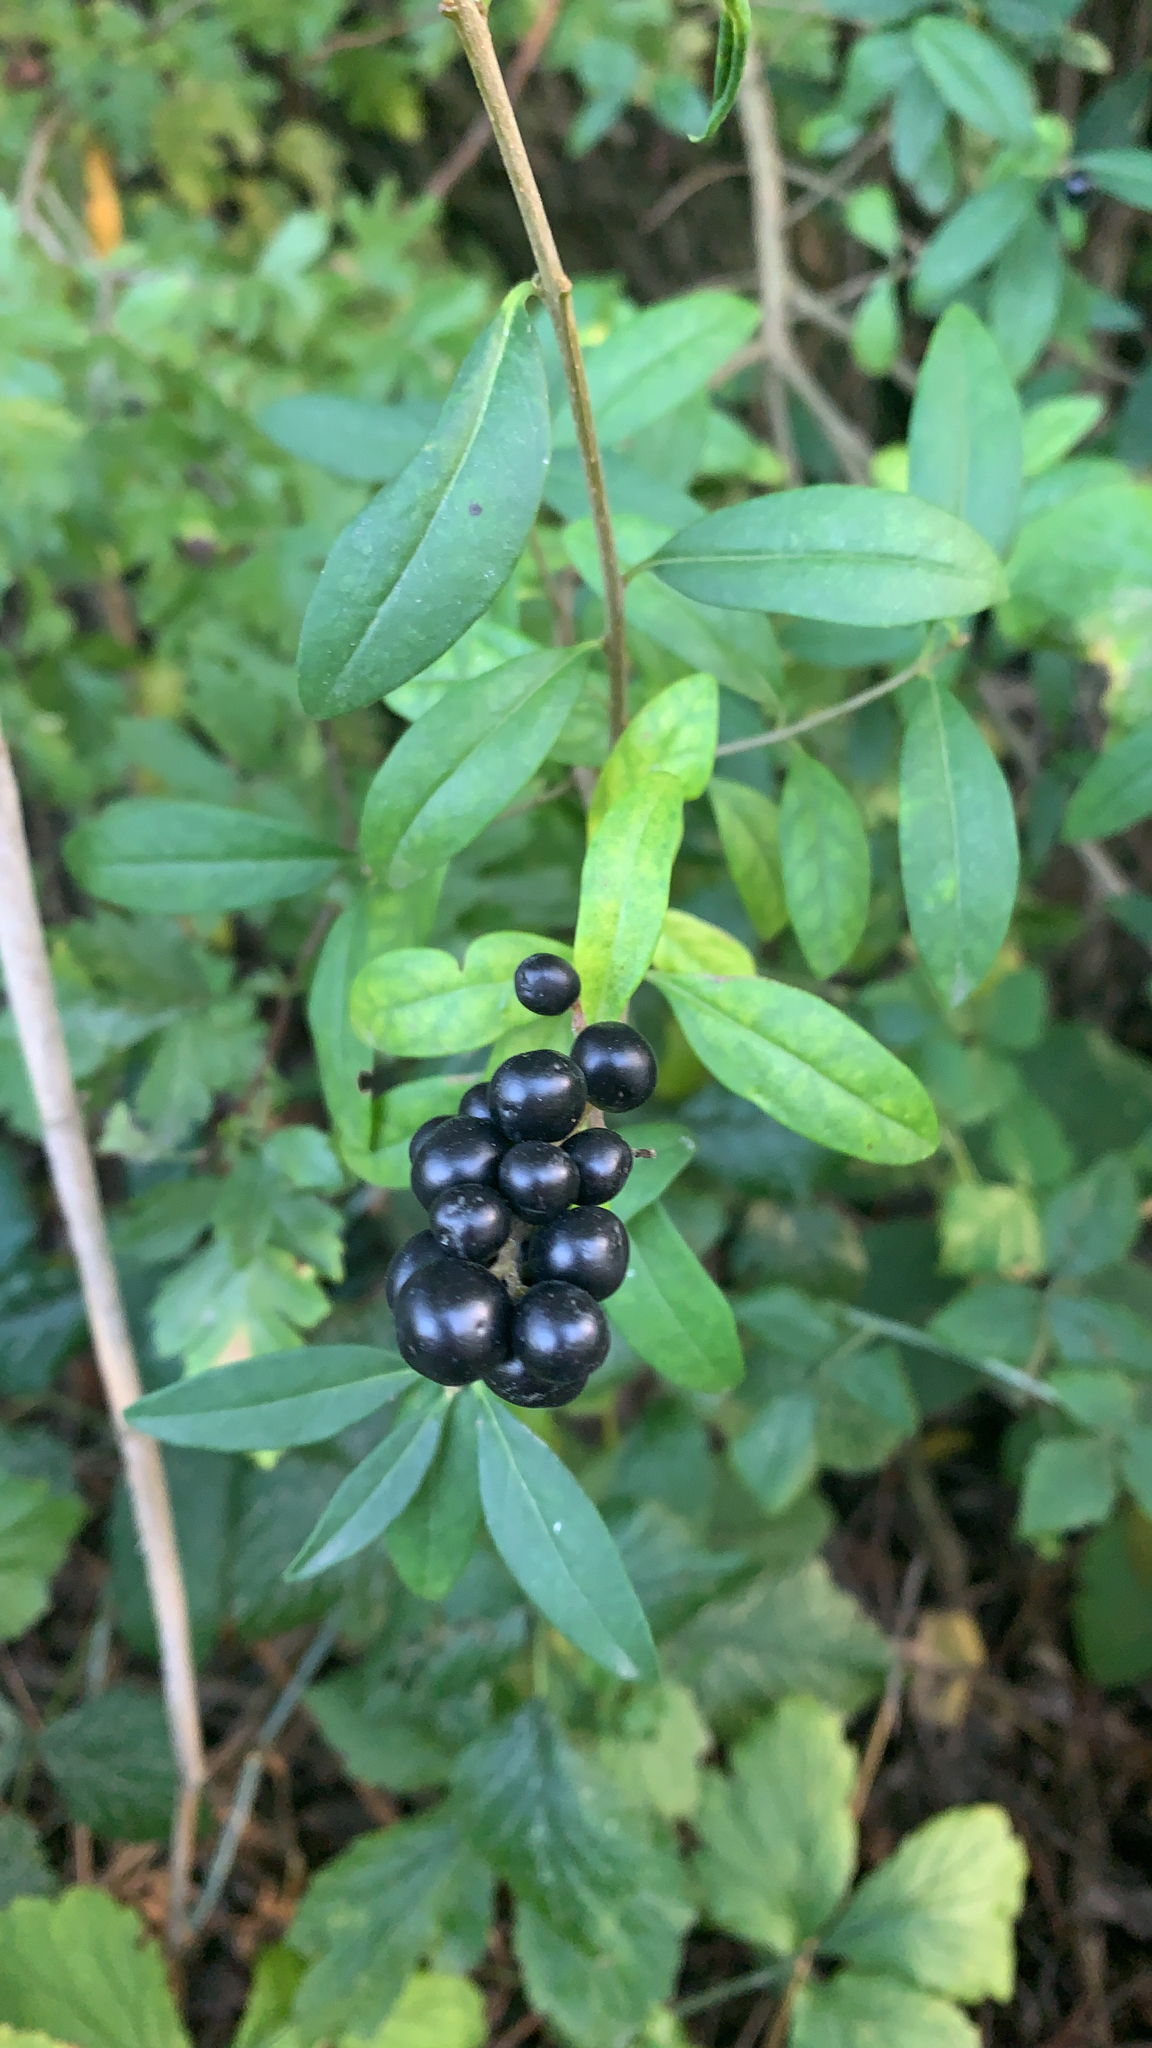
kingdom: Plantae
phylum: Tracheophyta
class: Magnoliopsida
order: Lamiales
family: Oleaceae
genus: Ligustrum
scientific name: Ligustrum vulgare
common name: Wild privet
